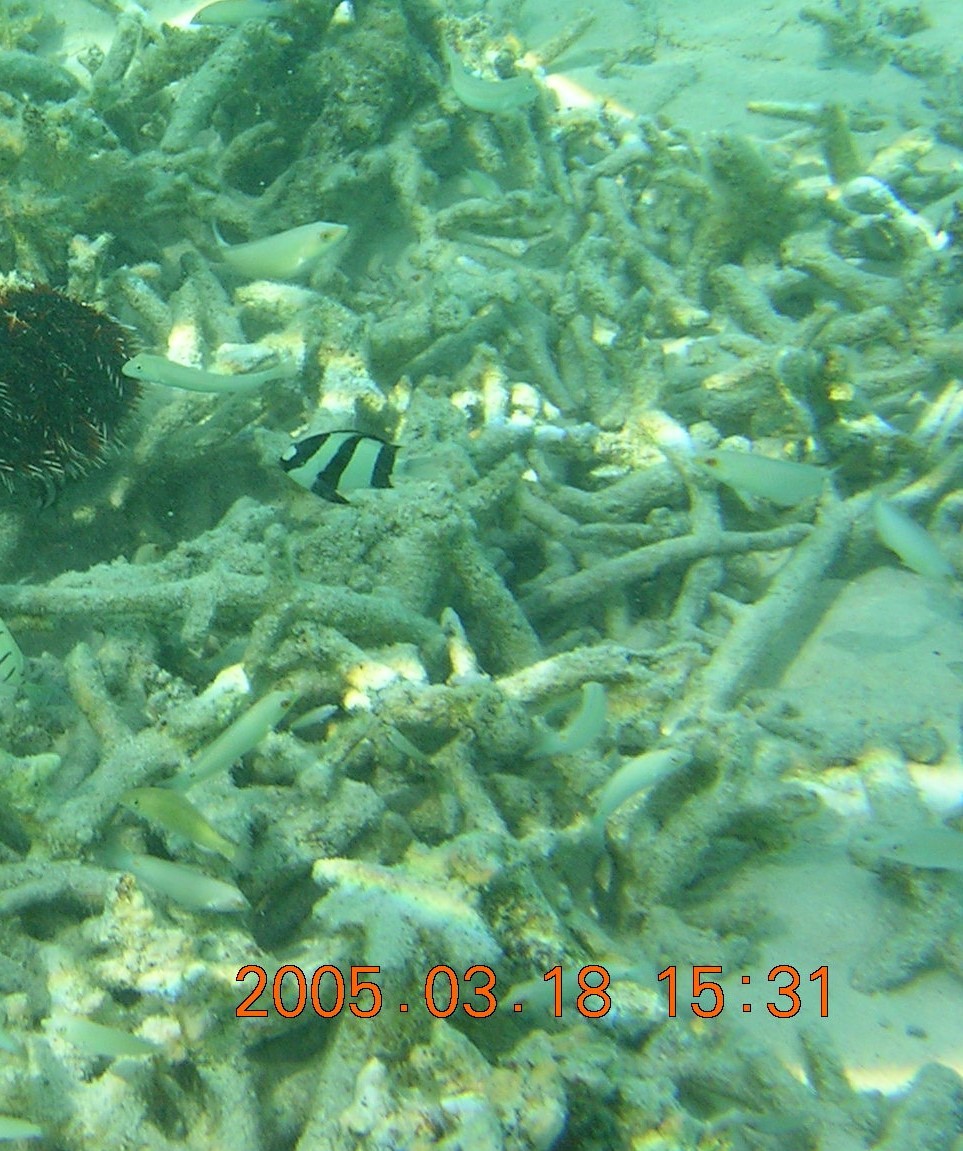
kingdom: Animalia
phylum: Chordata
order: Perciformes
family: Pomacentridae
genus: Dascyllus
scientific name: Dascyllus aruanus
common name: Humbug dascyllus
